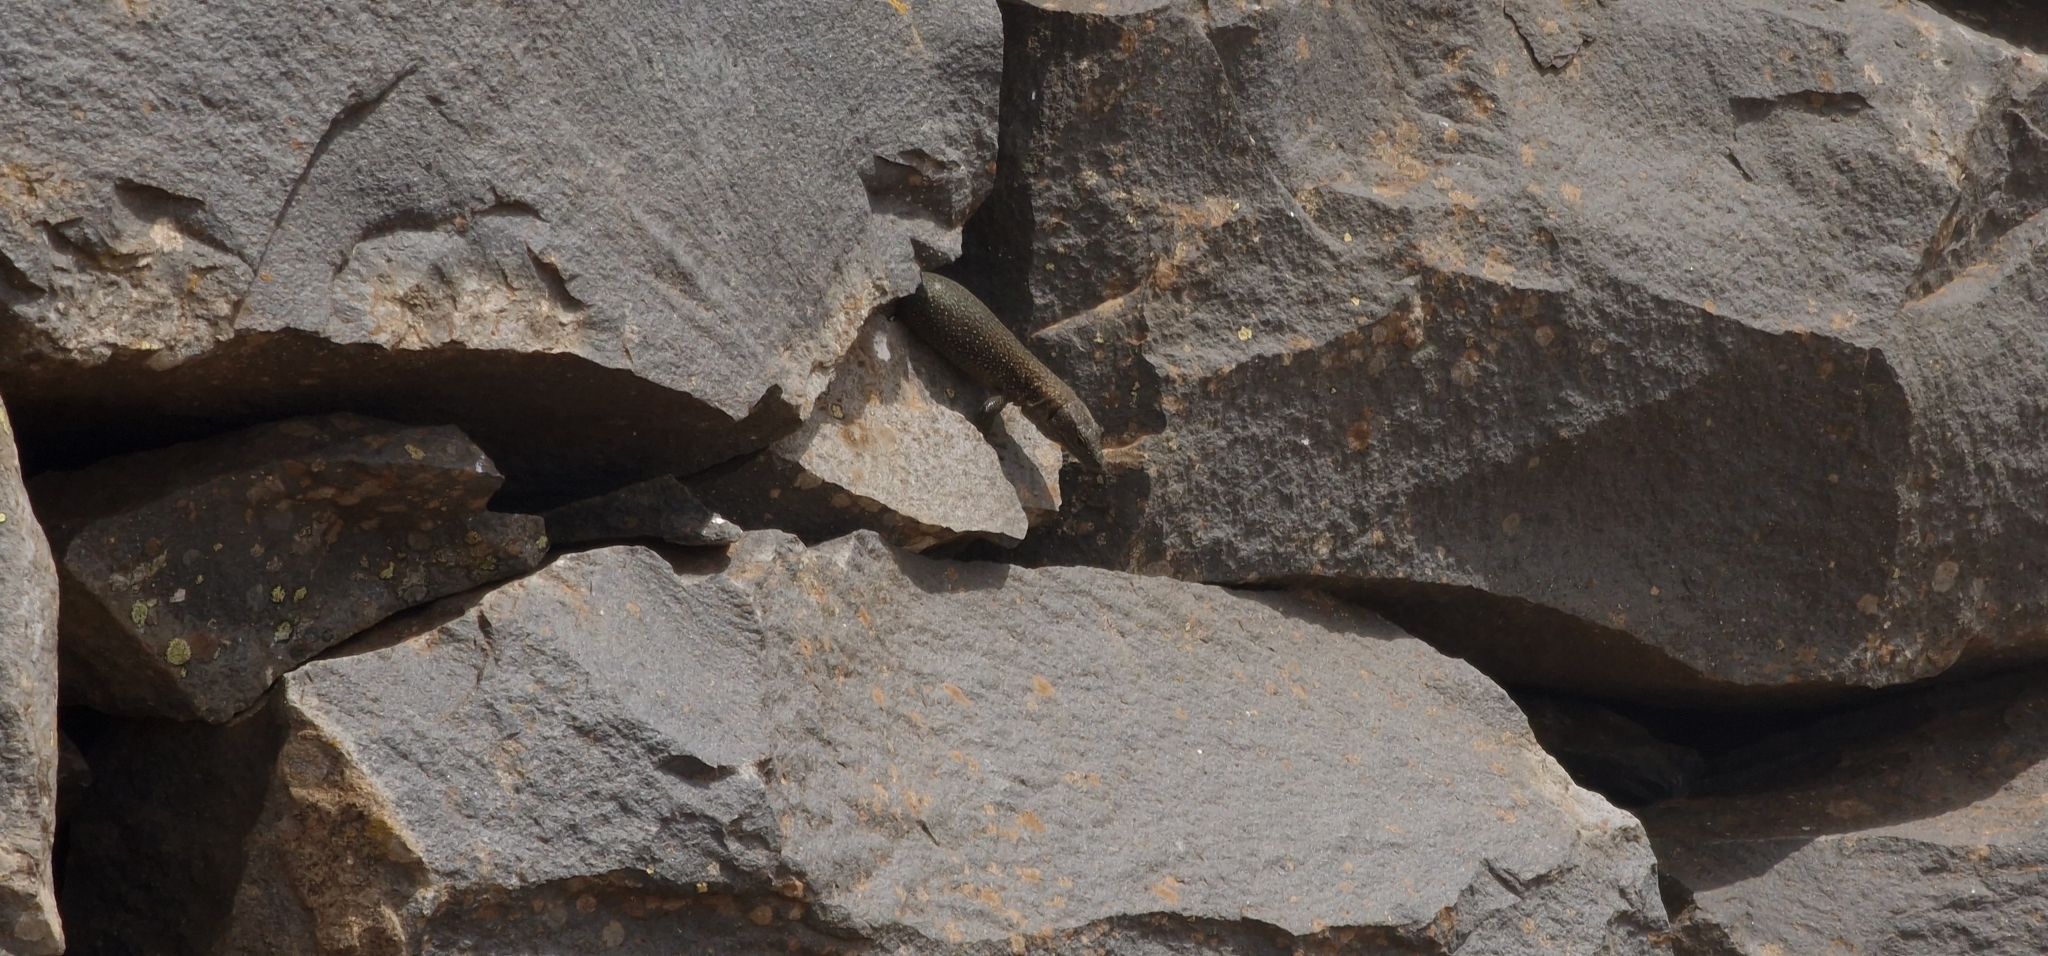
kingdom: Animalia
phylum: Chordata
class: Squamata
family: Lacertidae
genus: Teira
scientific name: Teira dugesii
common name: Madeira lizard
